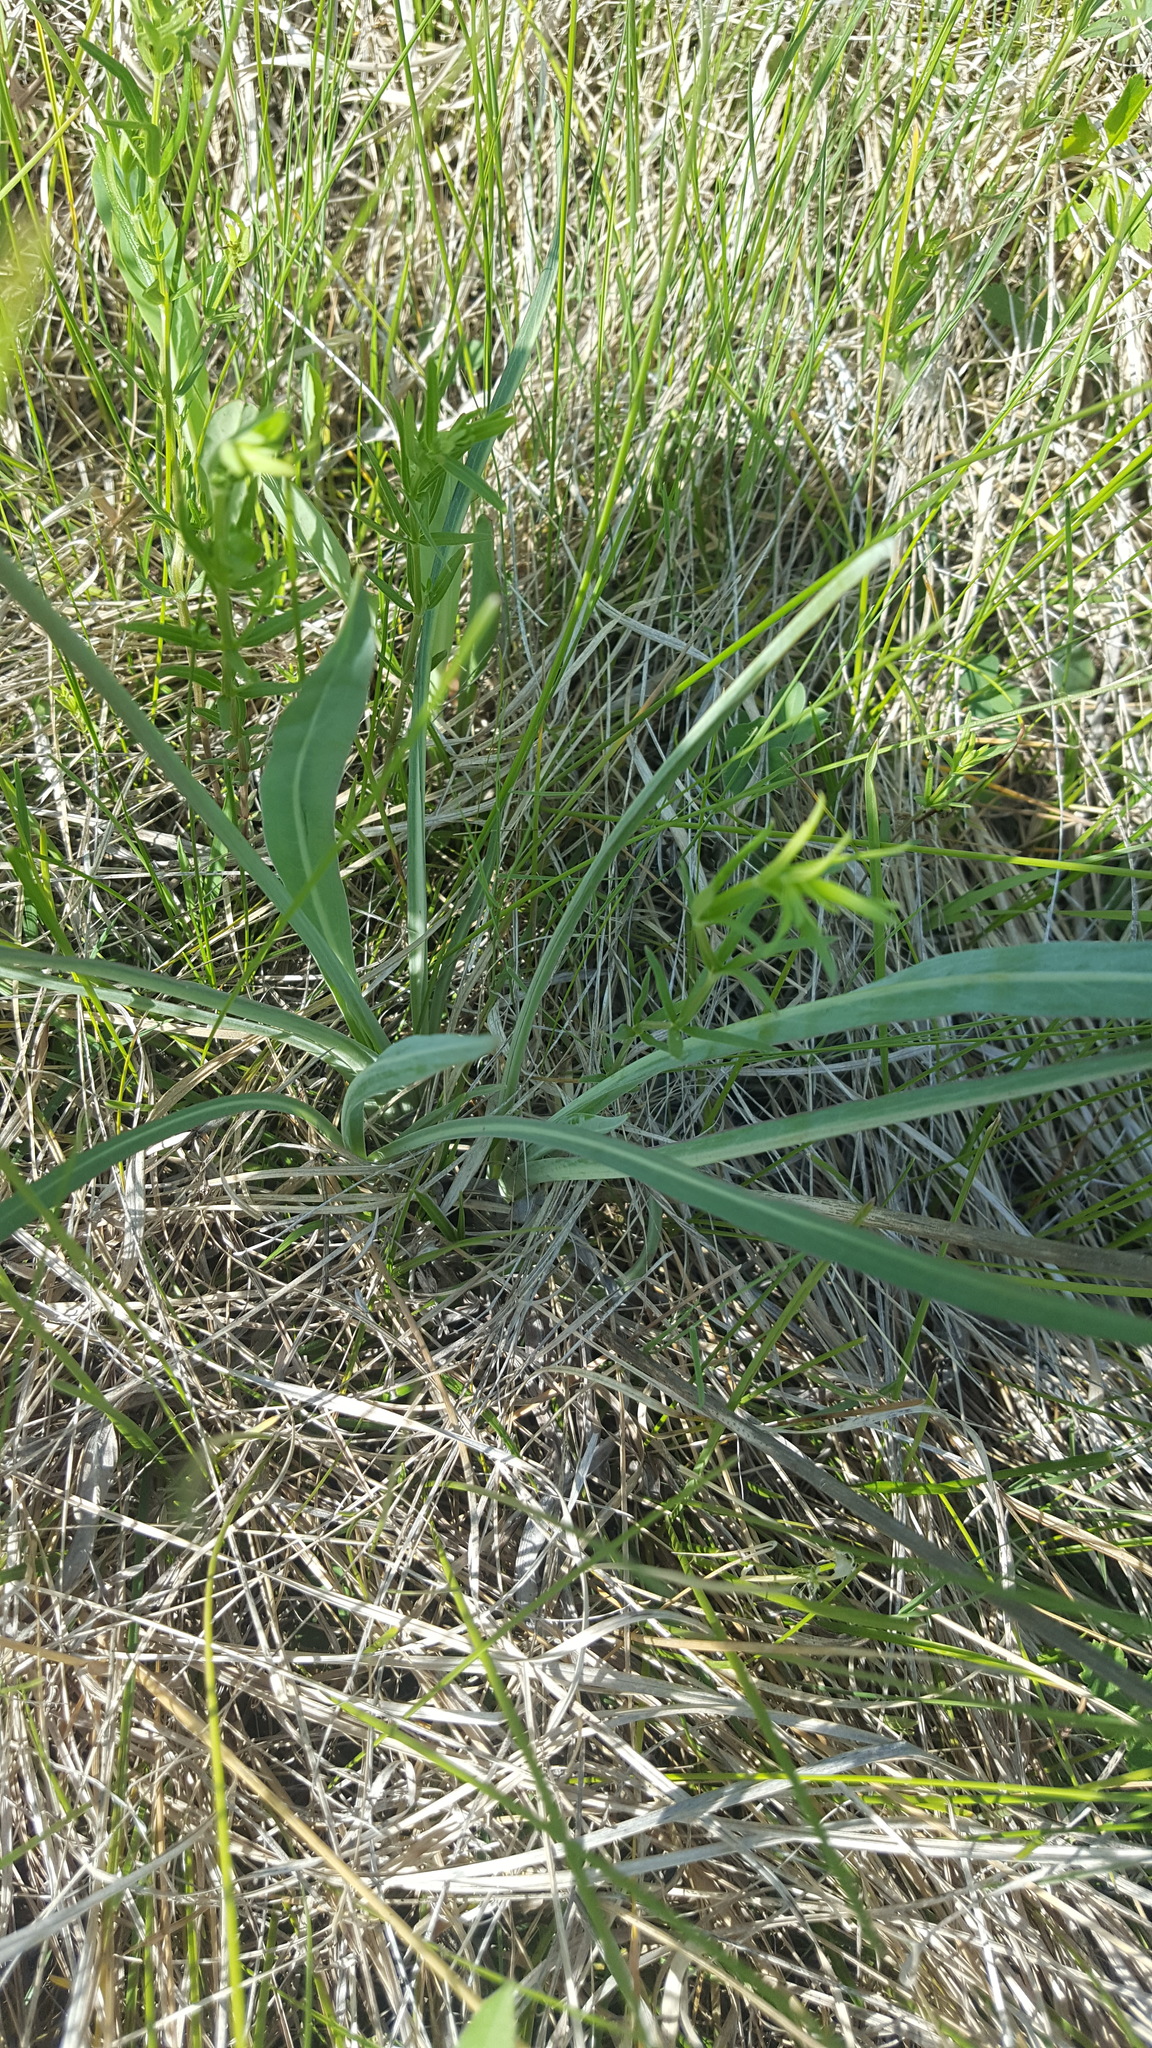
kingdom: Plantae
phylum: Tracheophyta
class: Magnoliopsida
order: Asterales
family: Asteraceae
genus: Agoseris
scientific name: Agoseris glauca
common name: Prairie agoseris
